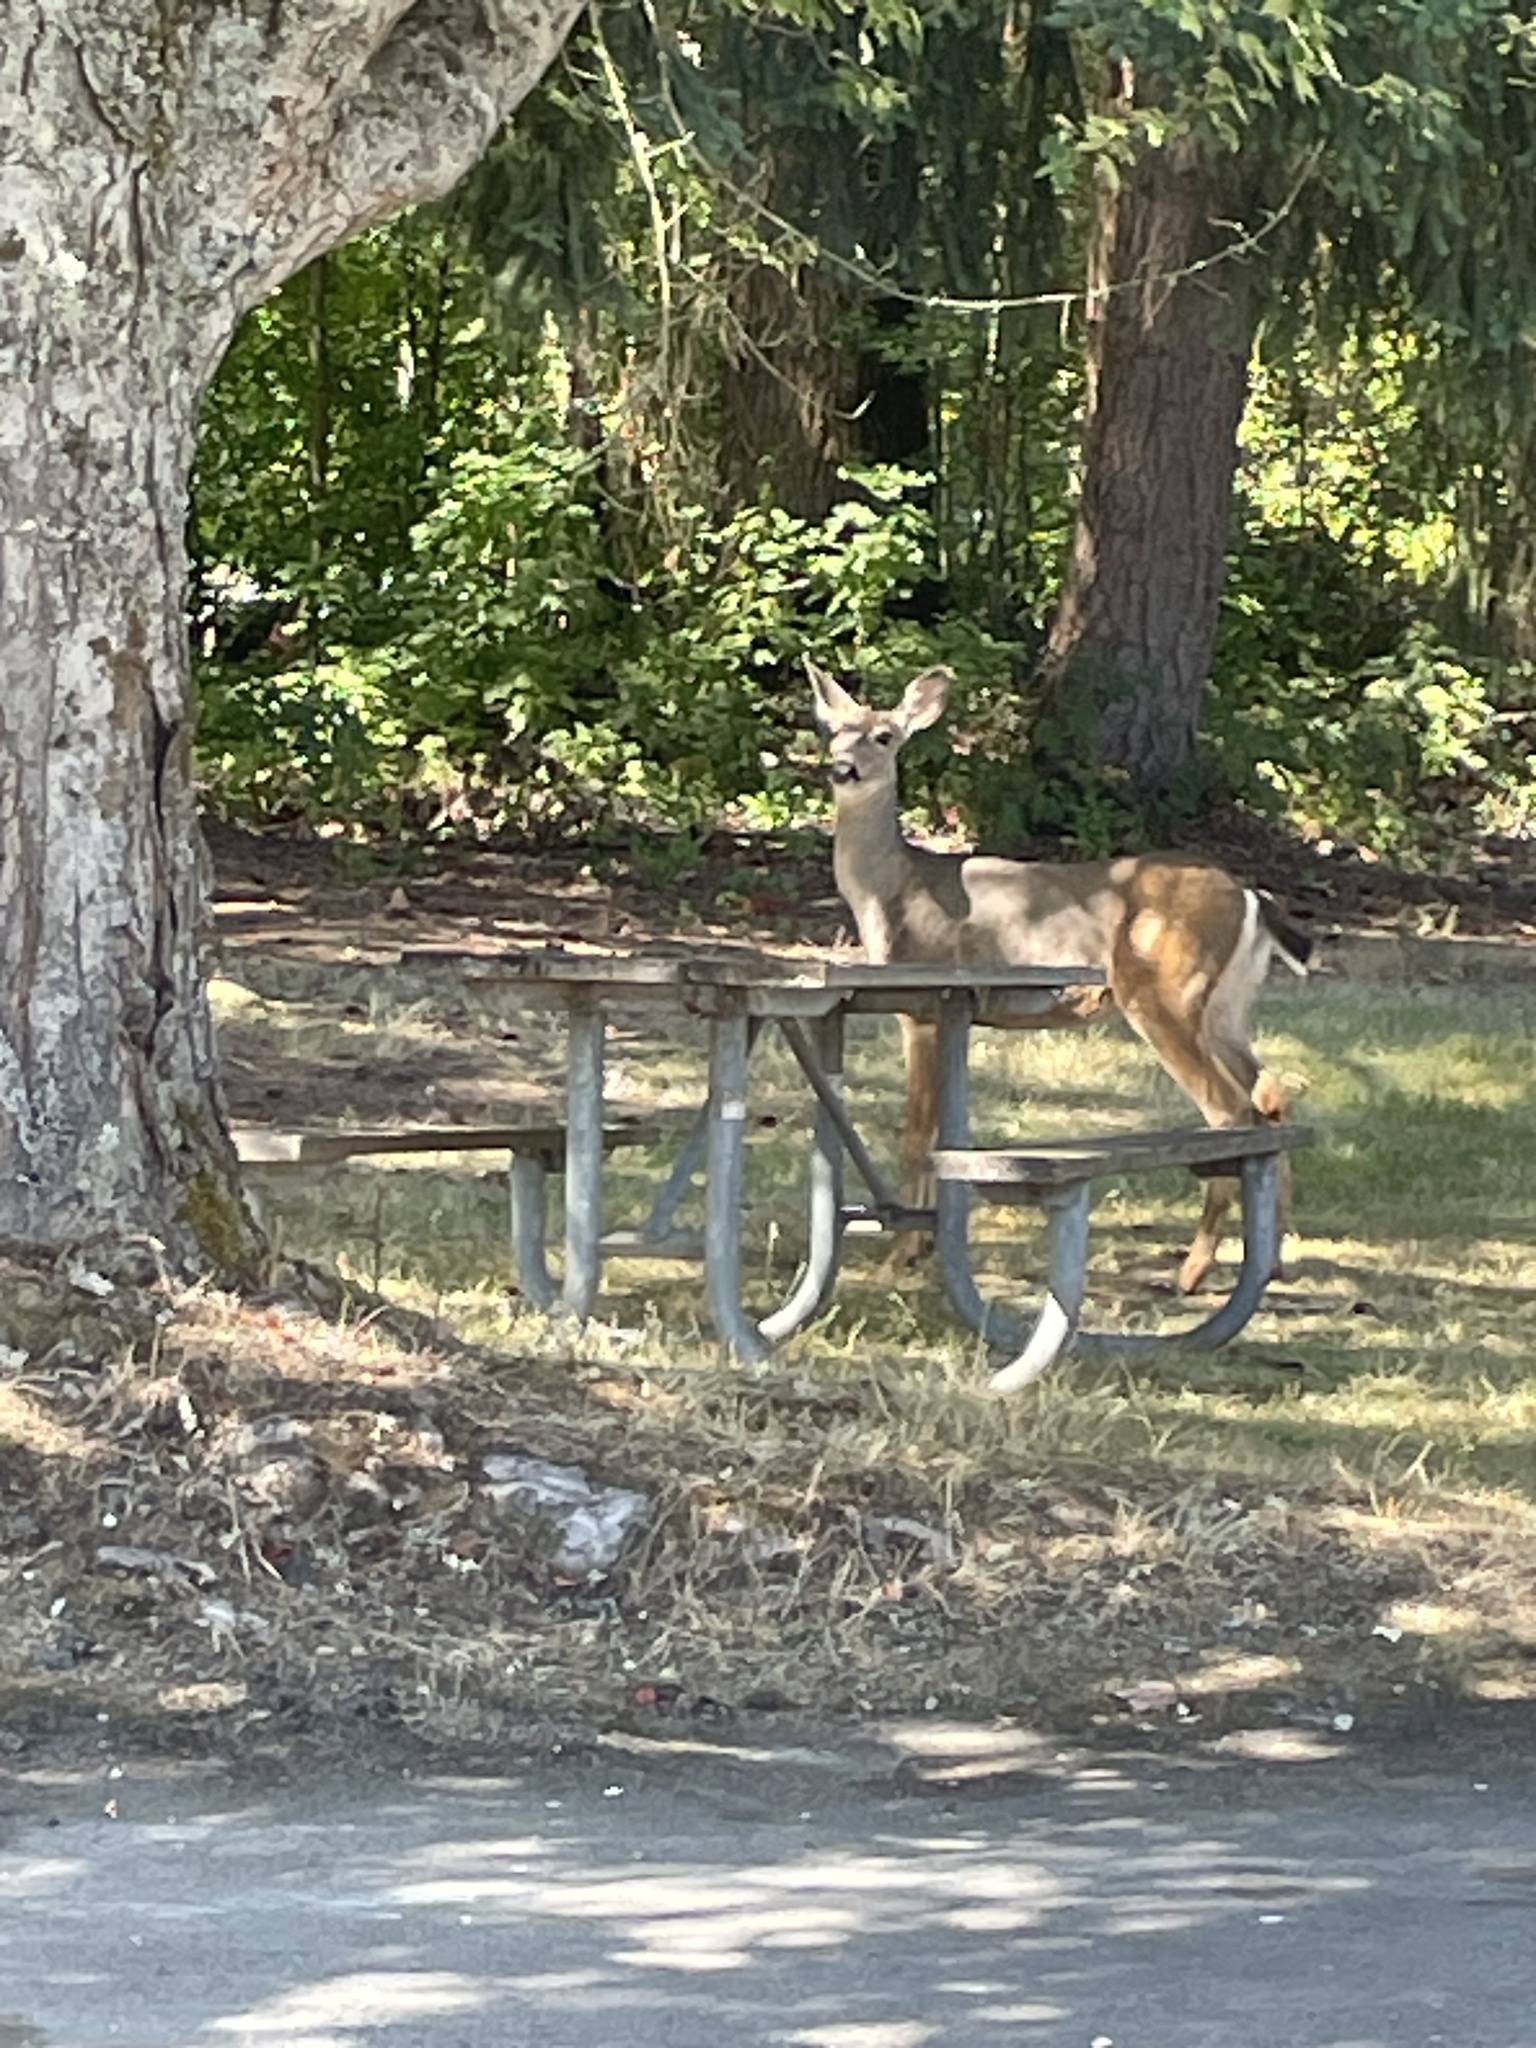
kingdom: Animalia
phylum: Chordata
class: Mammalia
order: Artiodactyla
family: Cervidae
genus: Odocoileus
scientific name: Odocoileus hemionus
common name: Mule deer
